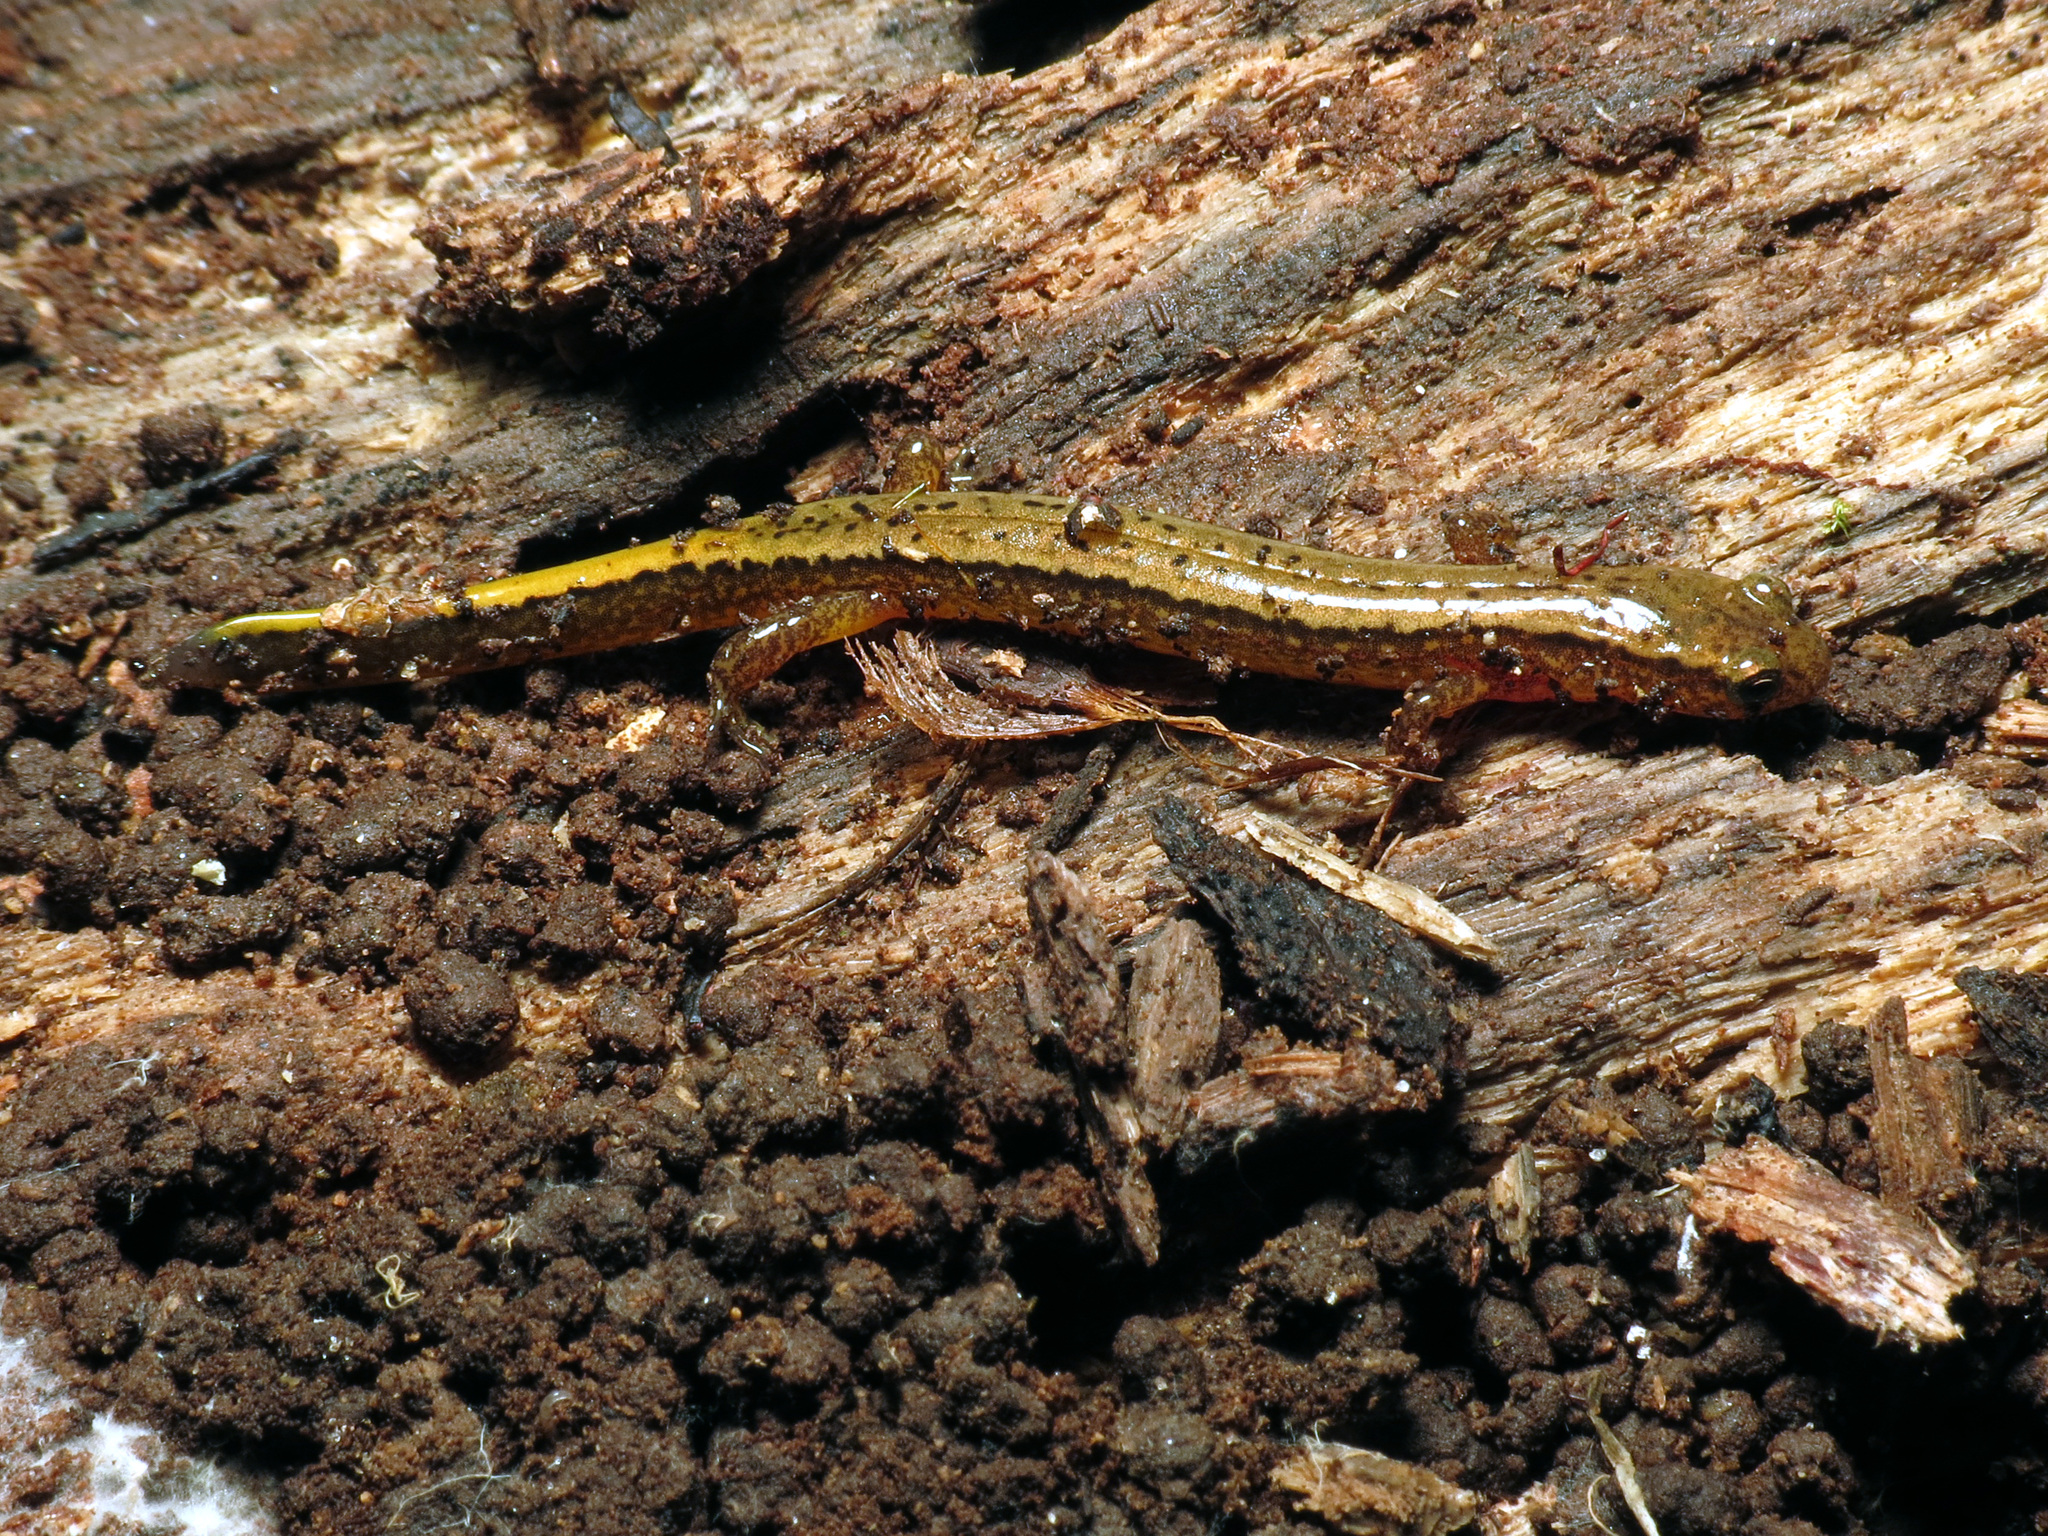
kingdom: Animalia
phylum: Chordata
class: Amphibia
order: Caudata
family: Plethodontidae
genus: Eurycea
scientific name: Eurycea bislineata
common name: Northern two-lined salamander
